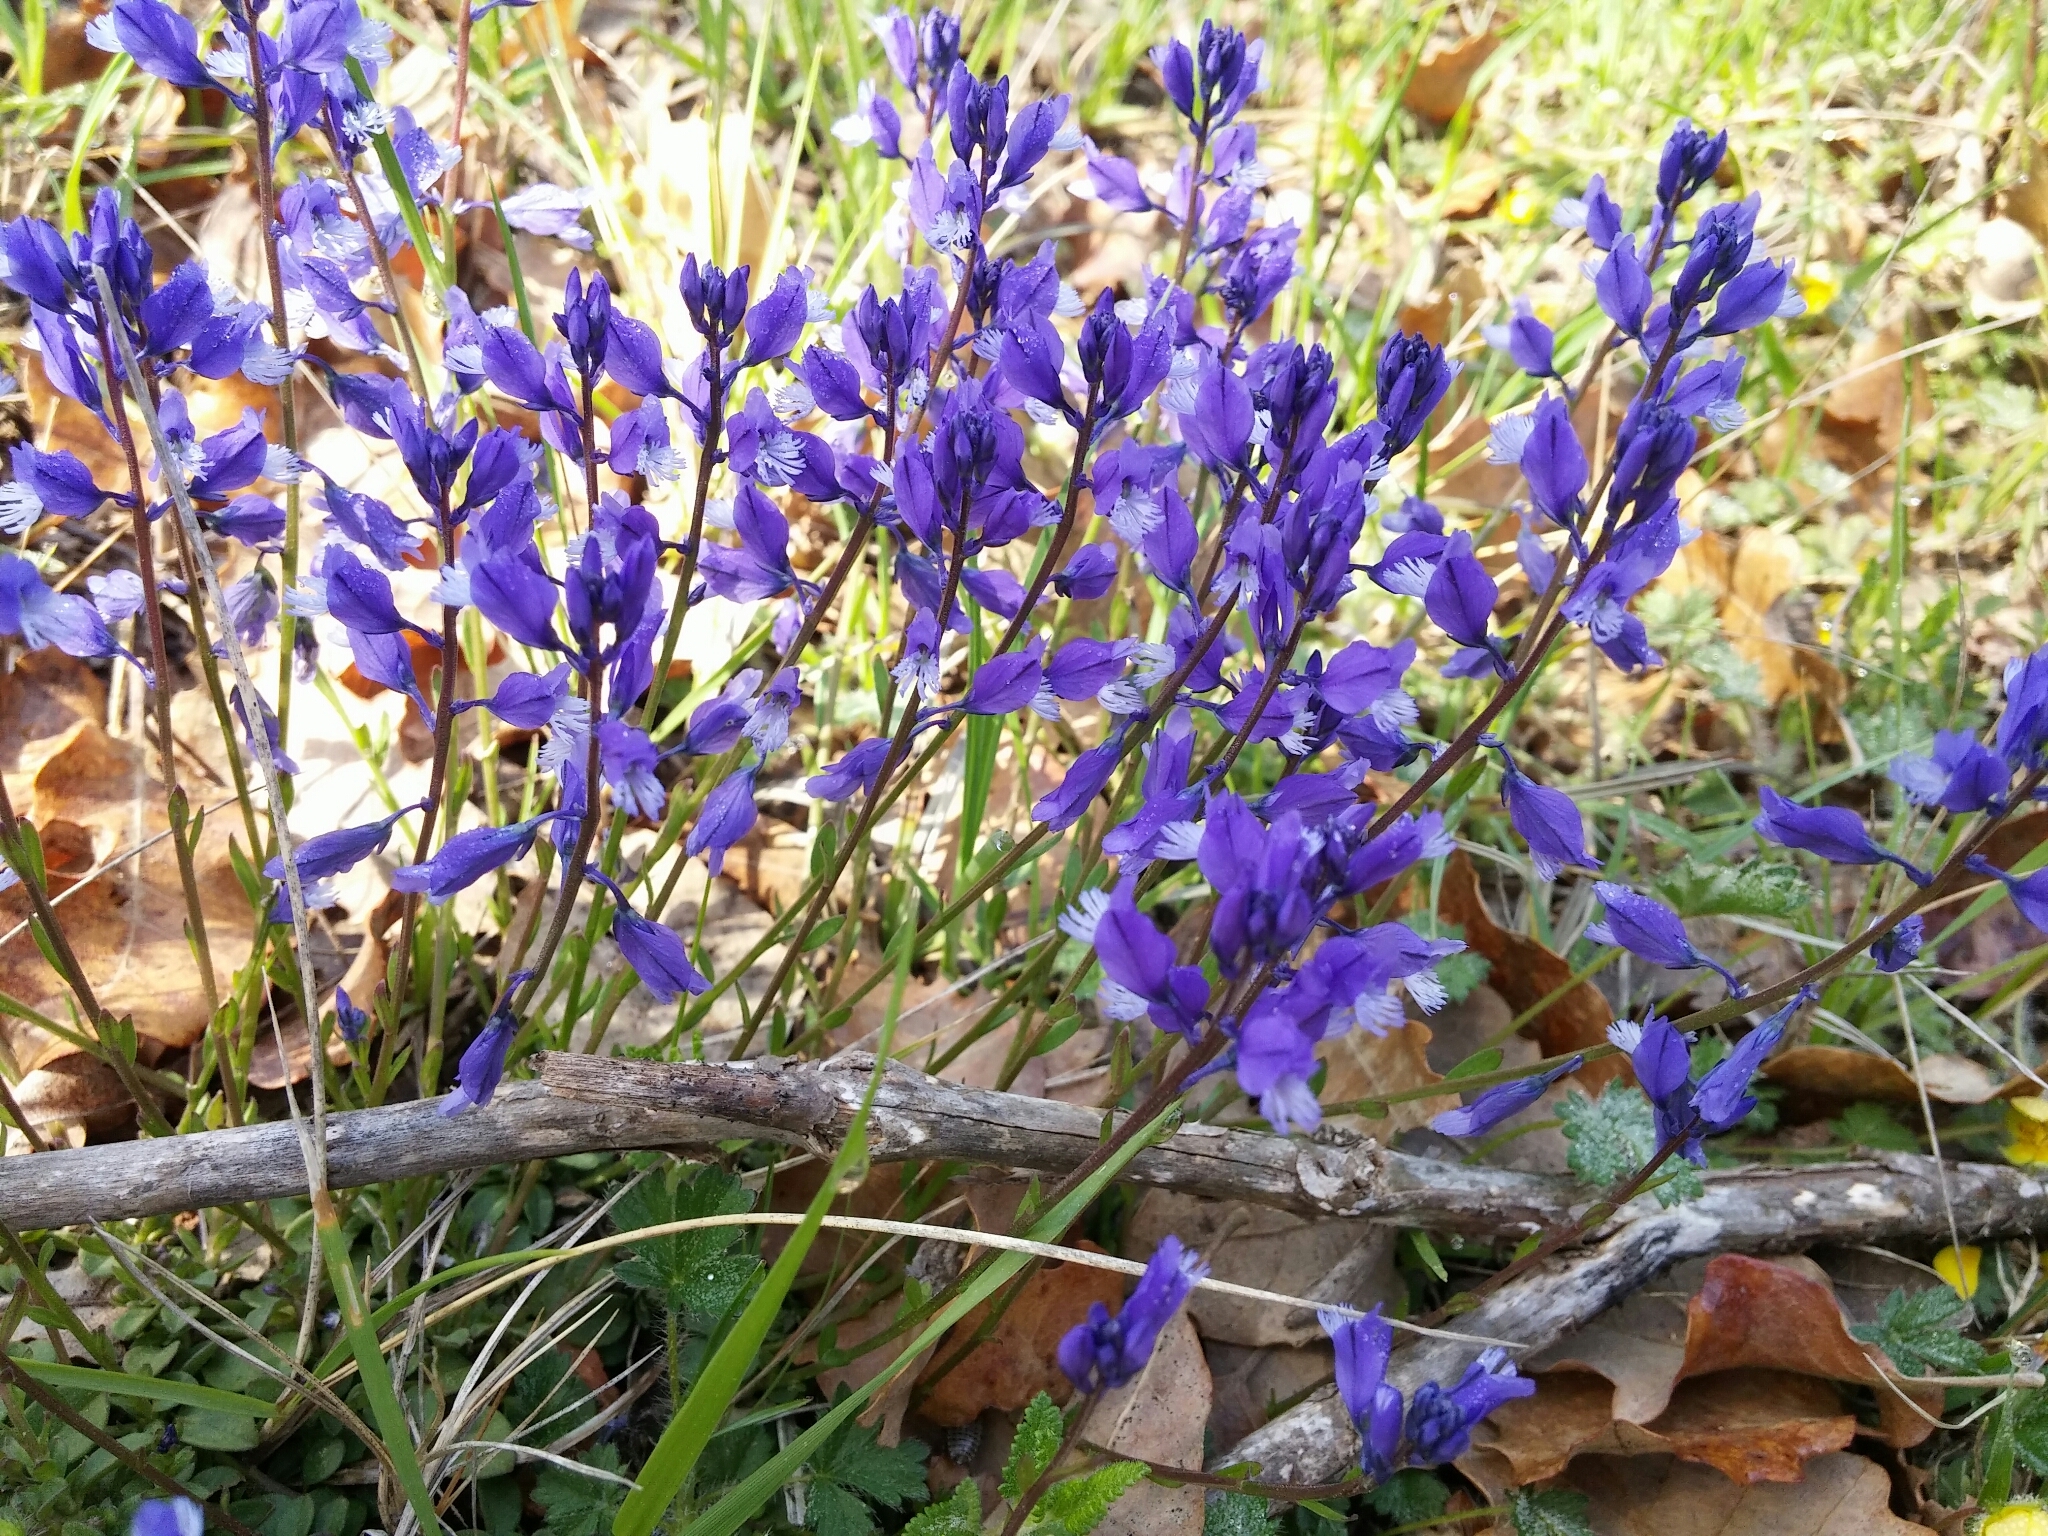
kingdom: Plantae
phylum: Tracheophyta
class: Magnoliopsida
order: Fabales
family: Polygalaceae
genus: Polygala
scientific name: Polygala calcarea
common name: Chalk milkwort
